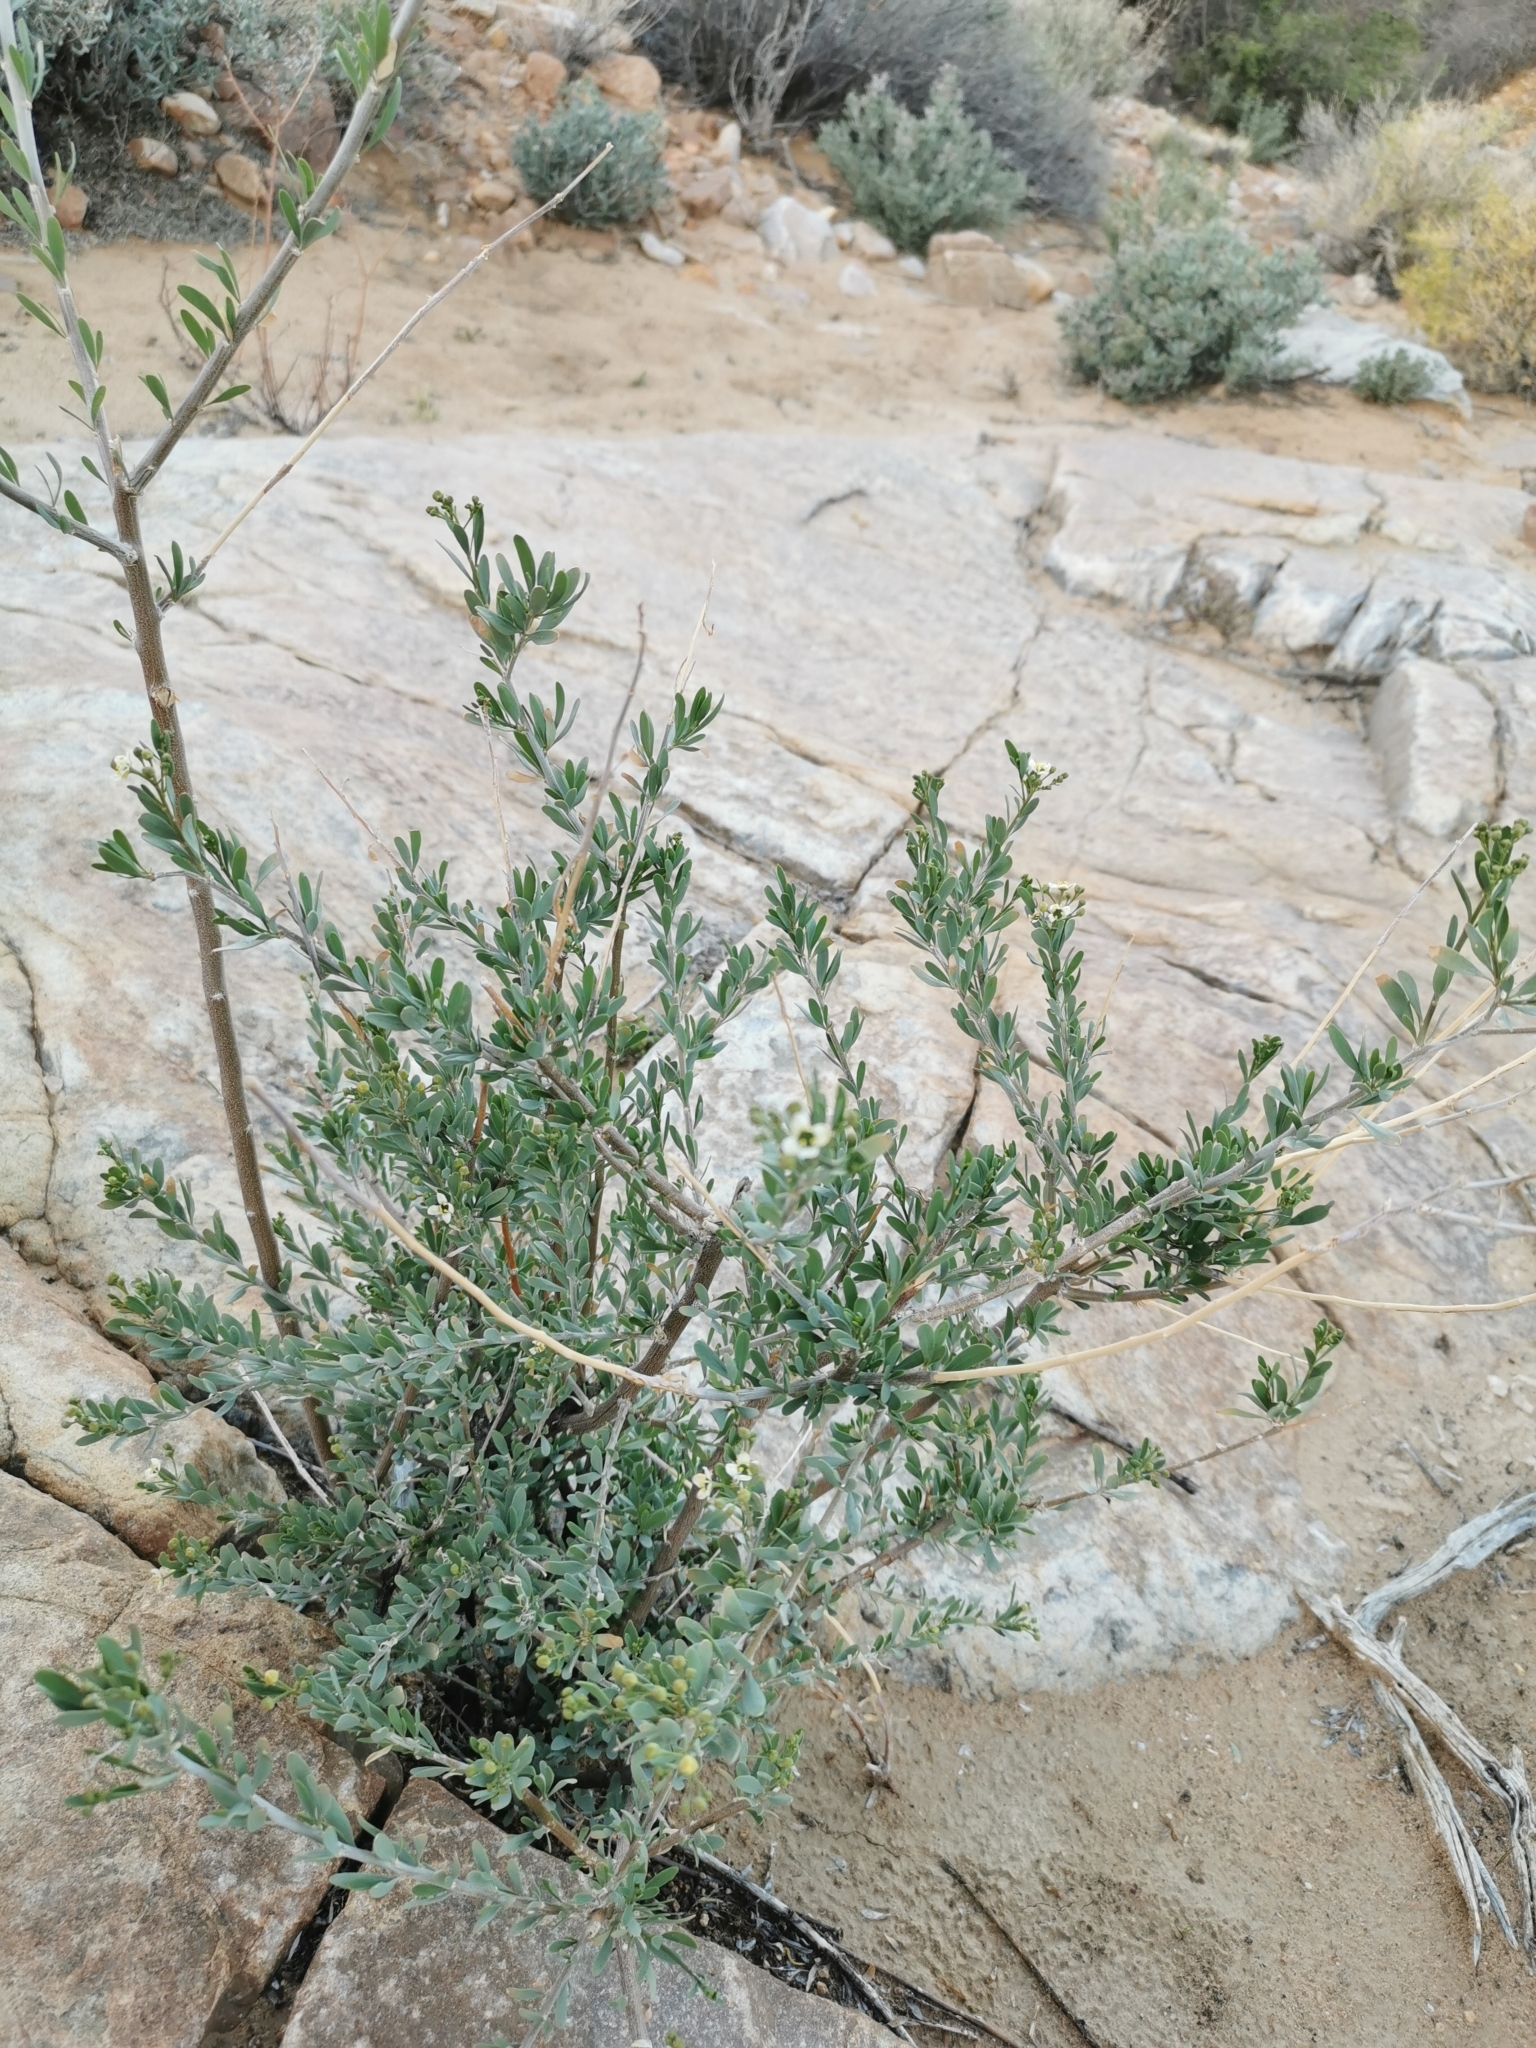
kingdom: Plantae
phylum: Tracheophyta
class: Magnoliopsida
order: Solanales
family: Montiniaceae
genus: Montinia
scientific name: Montinia caryophyllacea
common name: Wild clove-bush
